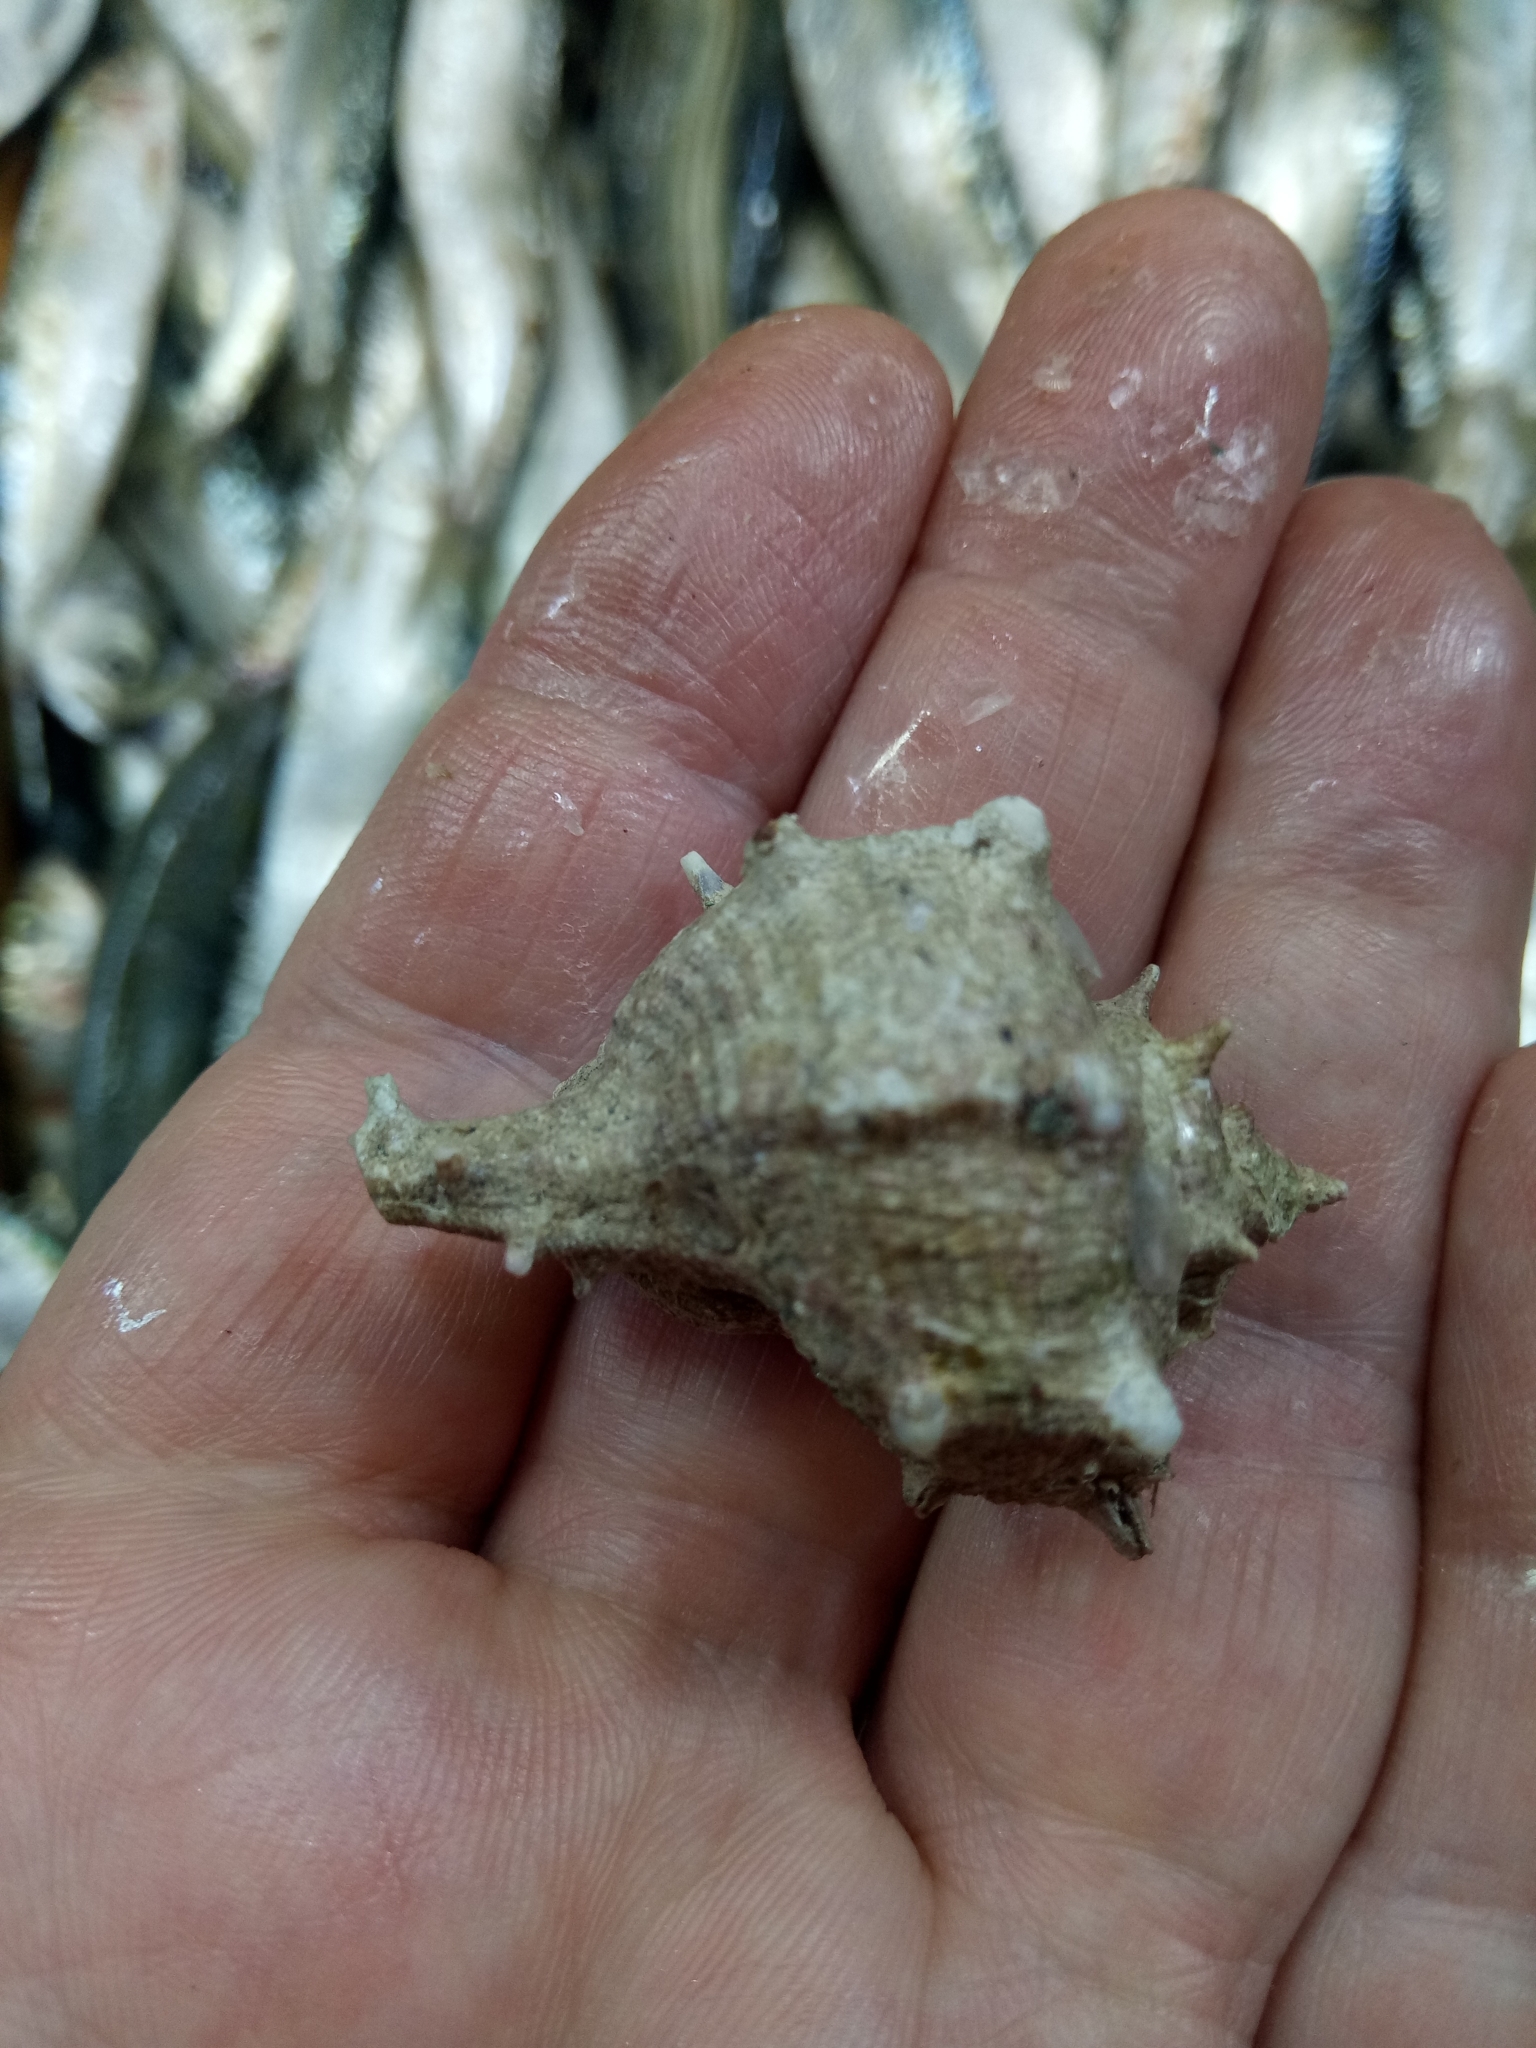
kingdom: Animalia
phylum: Mollusca
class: Gastropoda
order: Neogastropoda
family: Muricidae
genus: Bolinus
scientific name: Bolinus brandaris
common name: Dye murex
